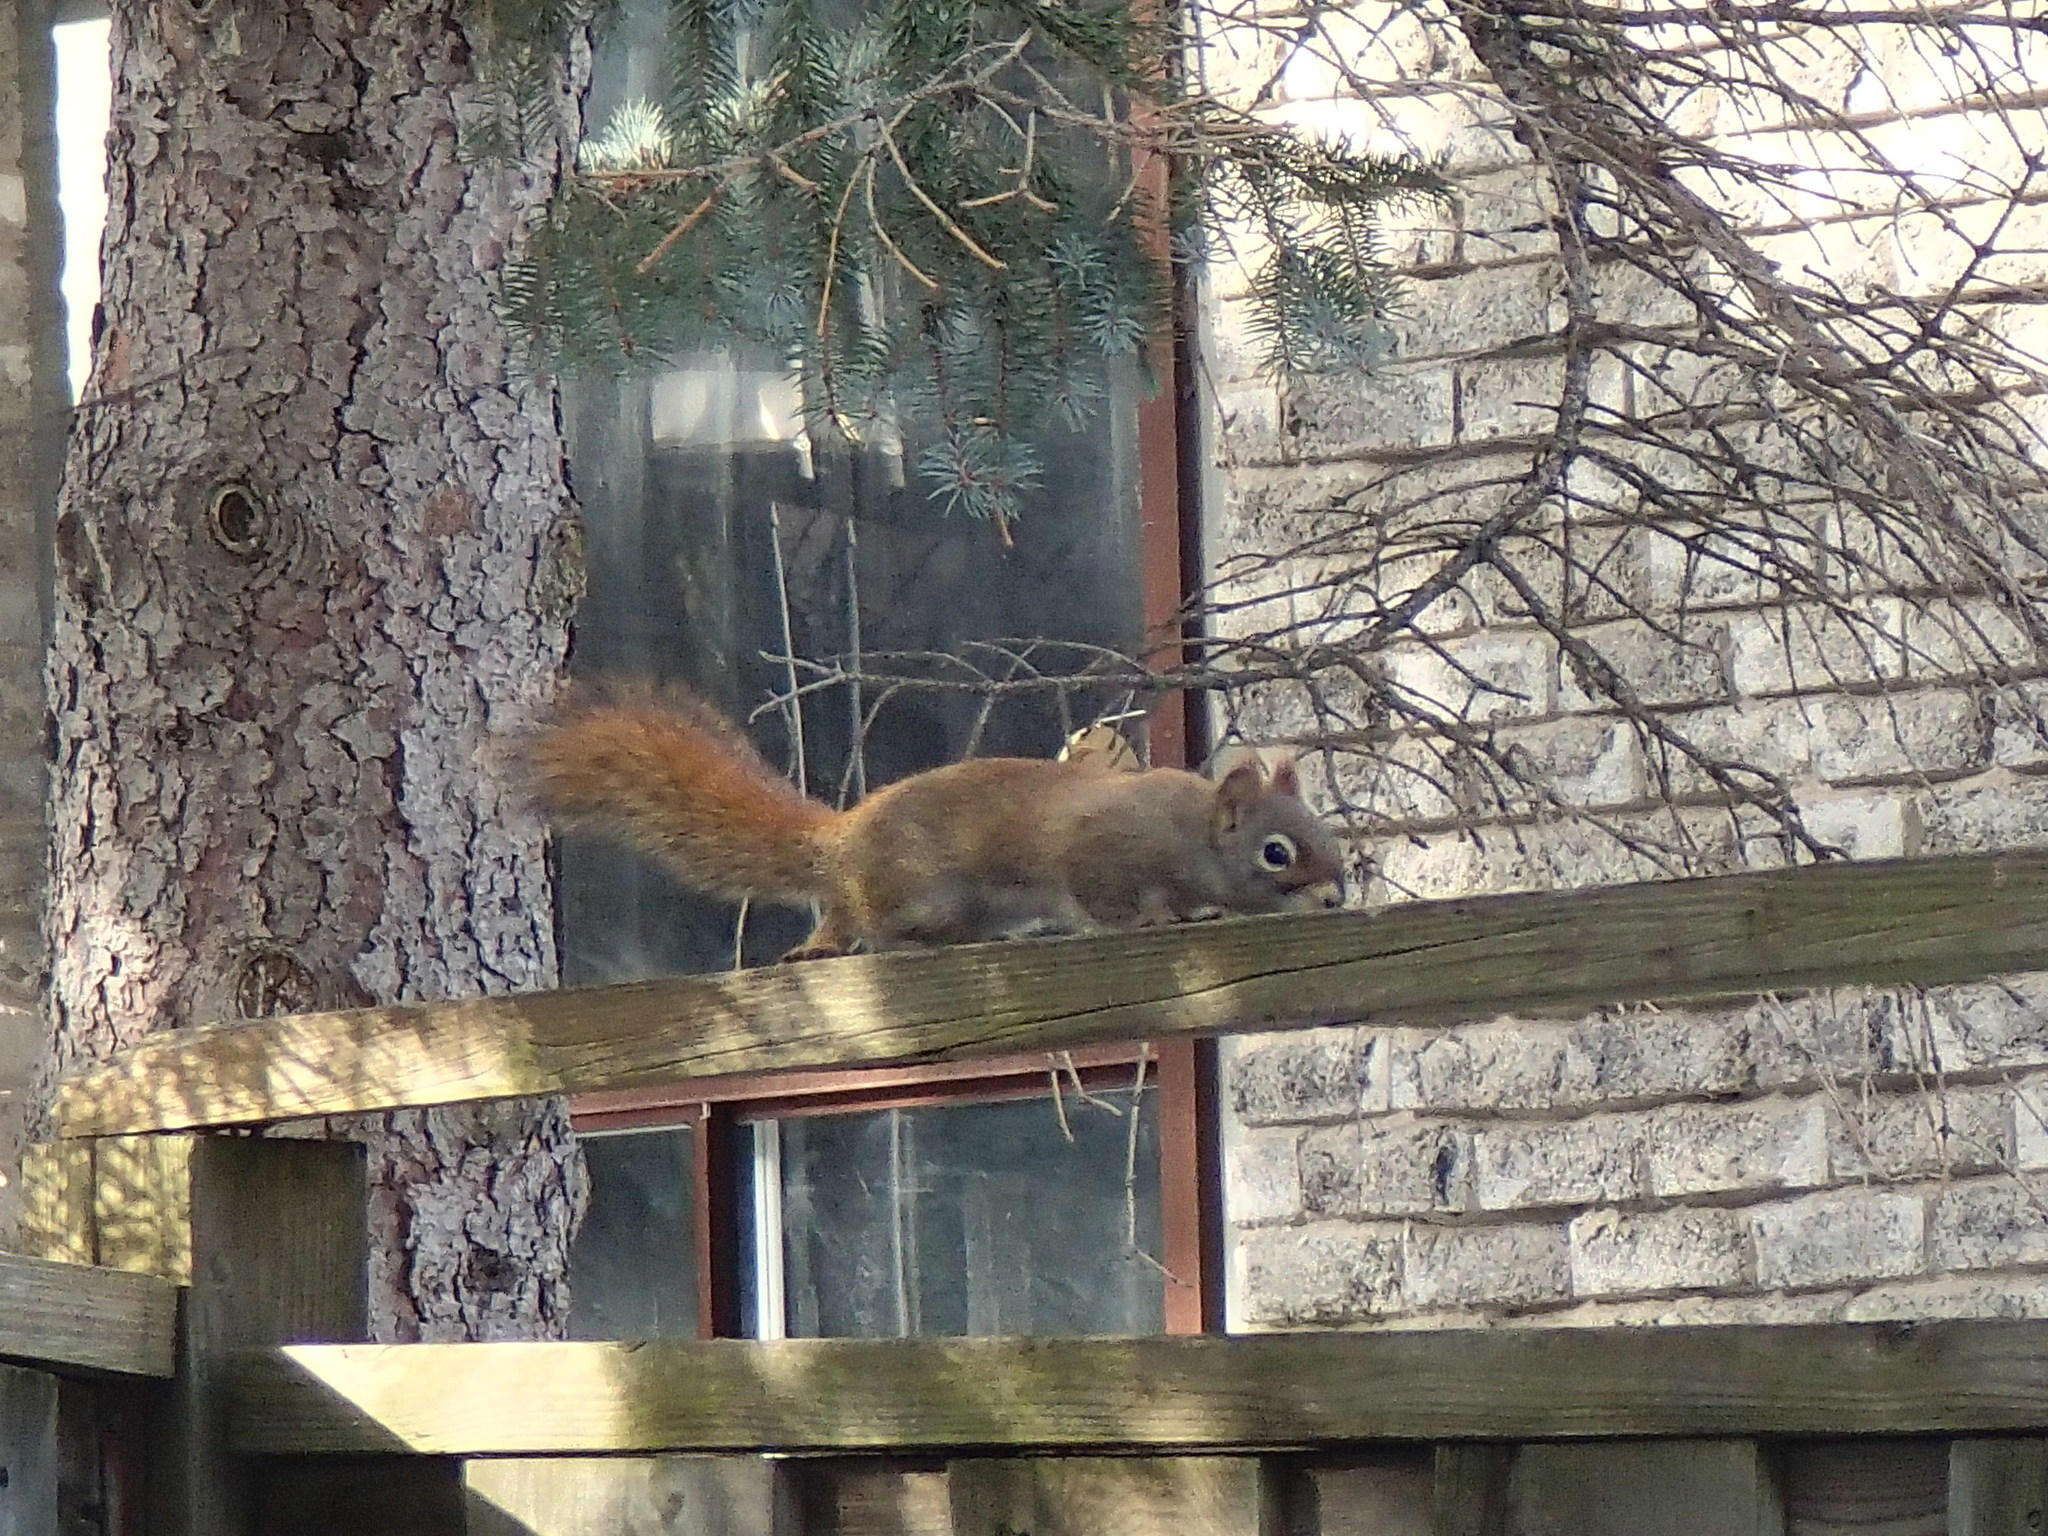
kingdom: Animalia
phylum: Chordata
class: Mammalia
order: Rodentia
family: Sciuridae
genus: Tamiasciurus
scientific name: Tamiasciurus hudsonicus
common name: Red squirrel
